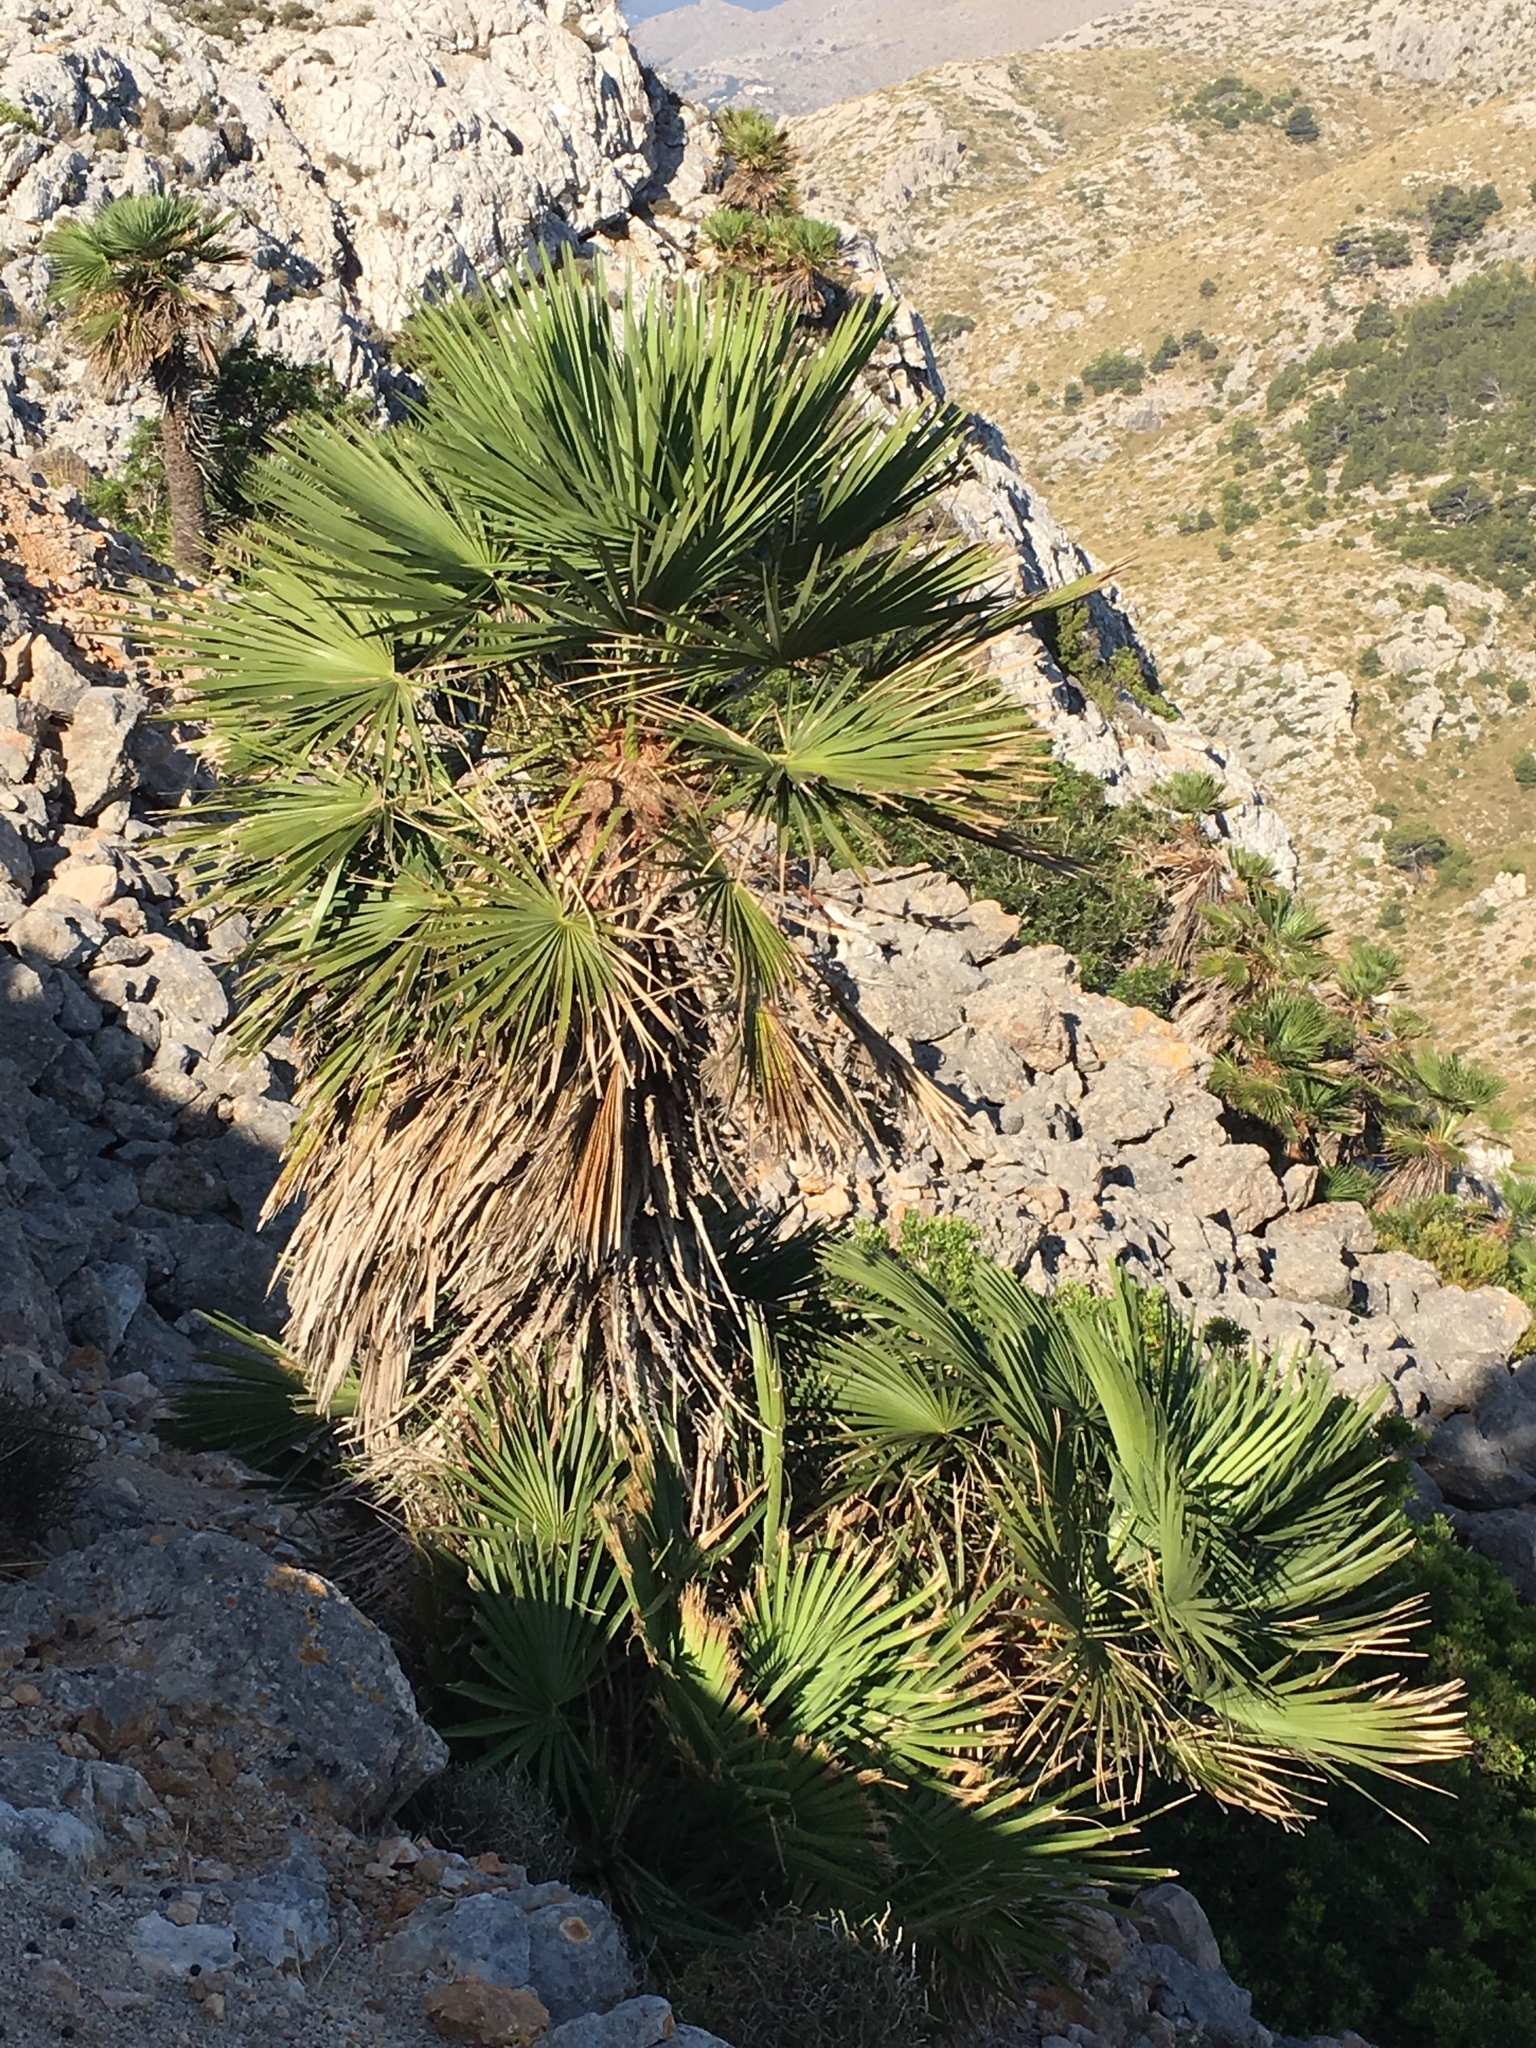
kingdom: Plantae
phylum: Tracheophyta
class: Liliopsida
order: Arecales
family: Arecaceae
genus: Chamaerops
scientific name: Chamaerops humilis
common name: Dwarf fan palm
